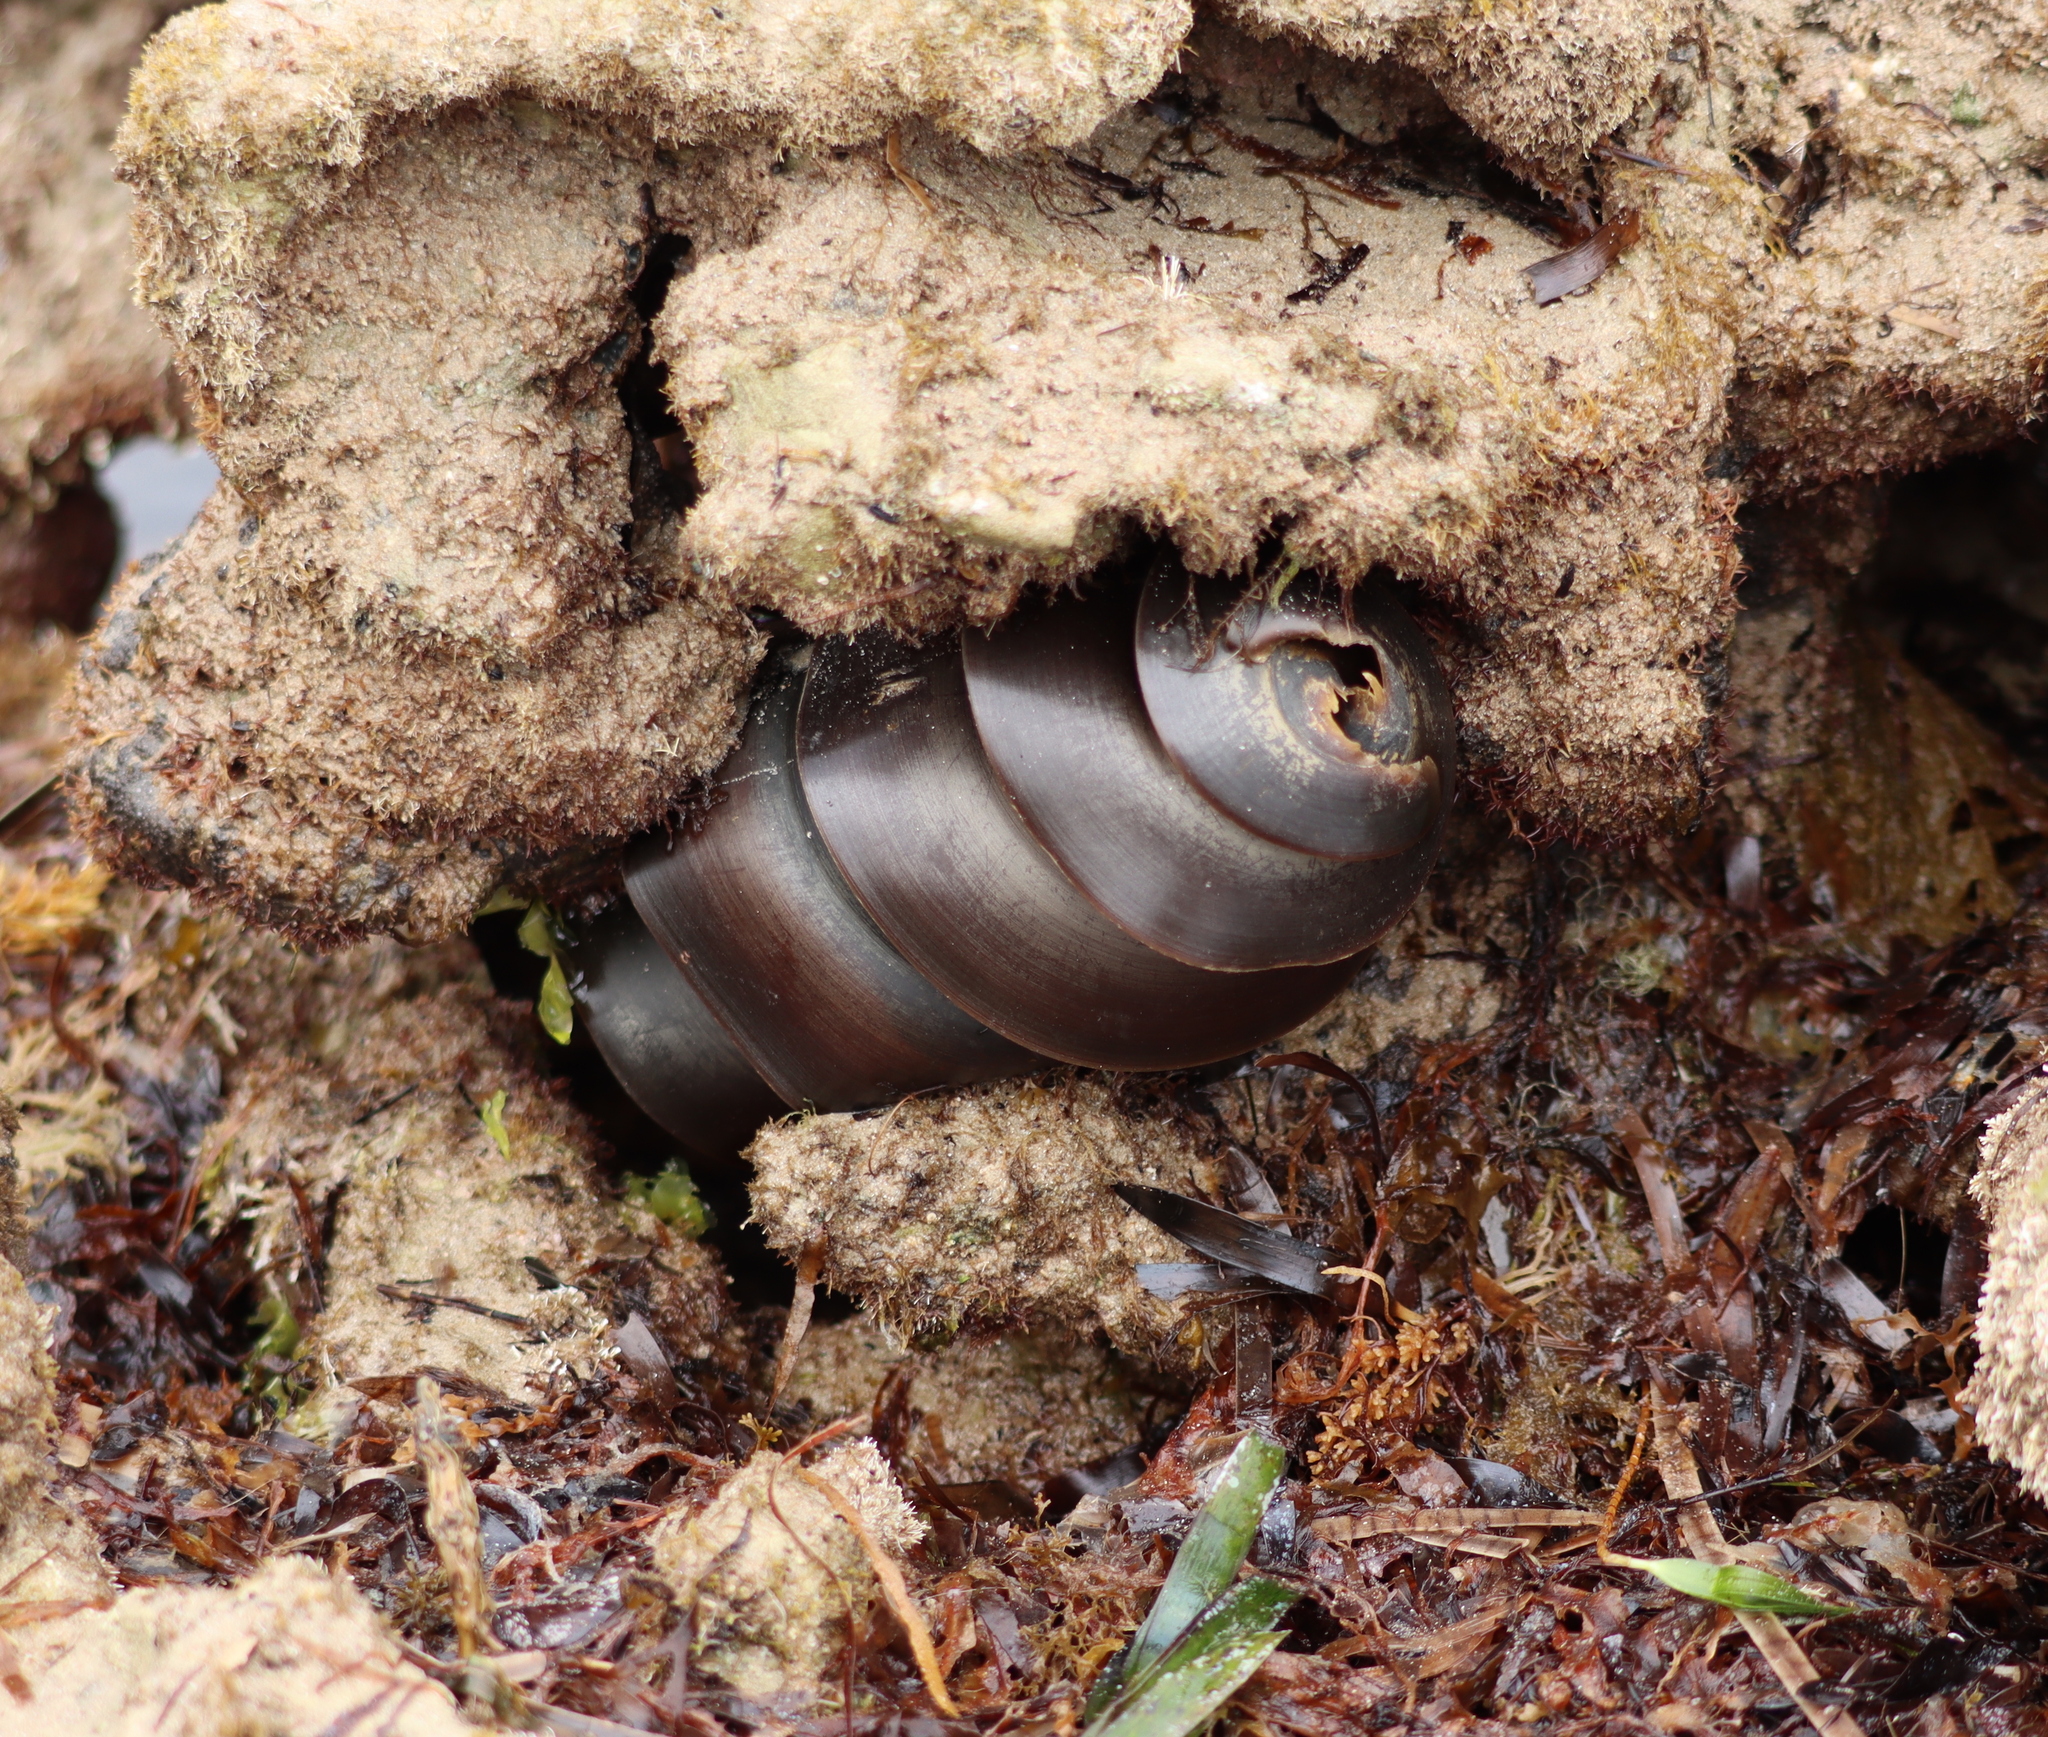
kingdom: Animalia
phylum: Chordata
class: Elasmobranchii
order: Heterodontiformes
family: Heterodontidae
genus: Heterodontus
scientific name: Heterodontus portusjacksoni
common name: Port jackson shark
